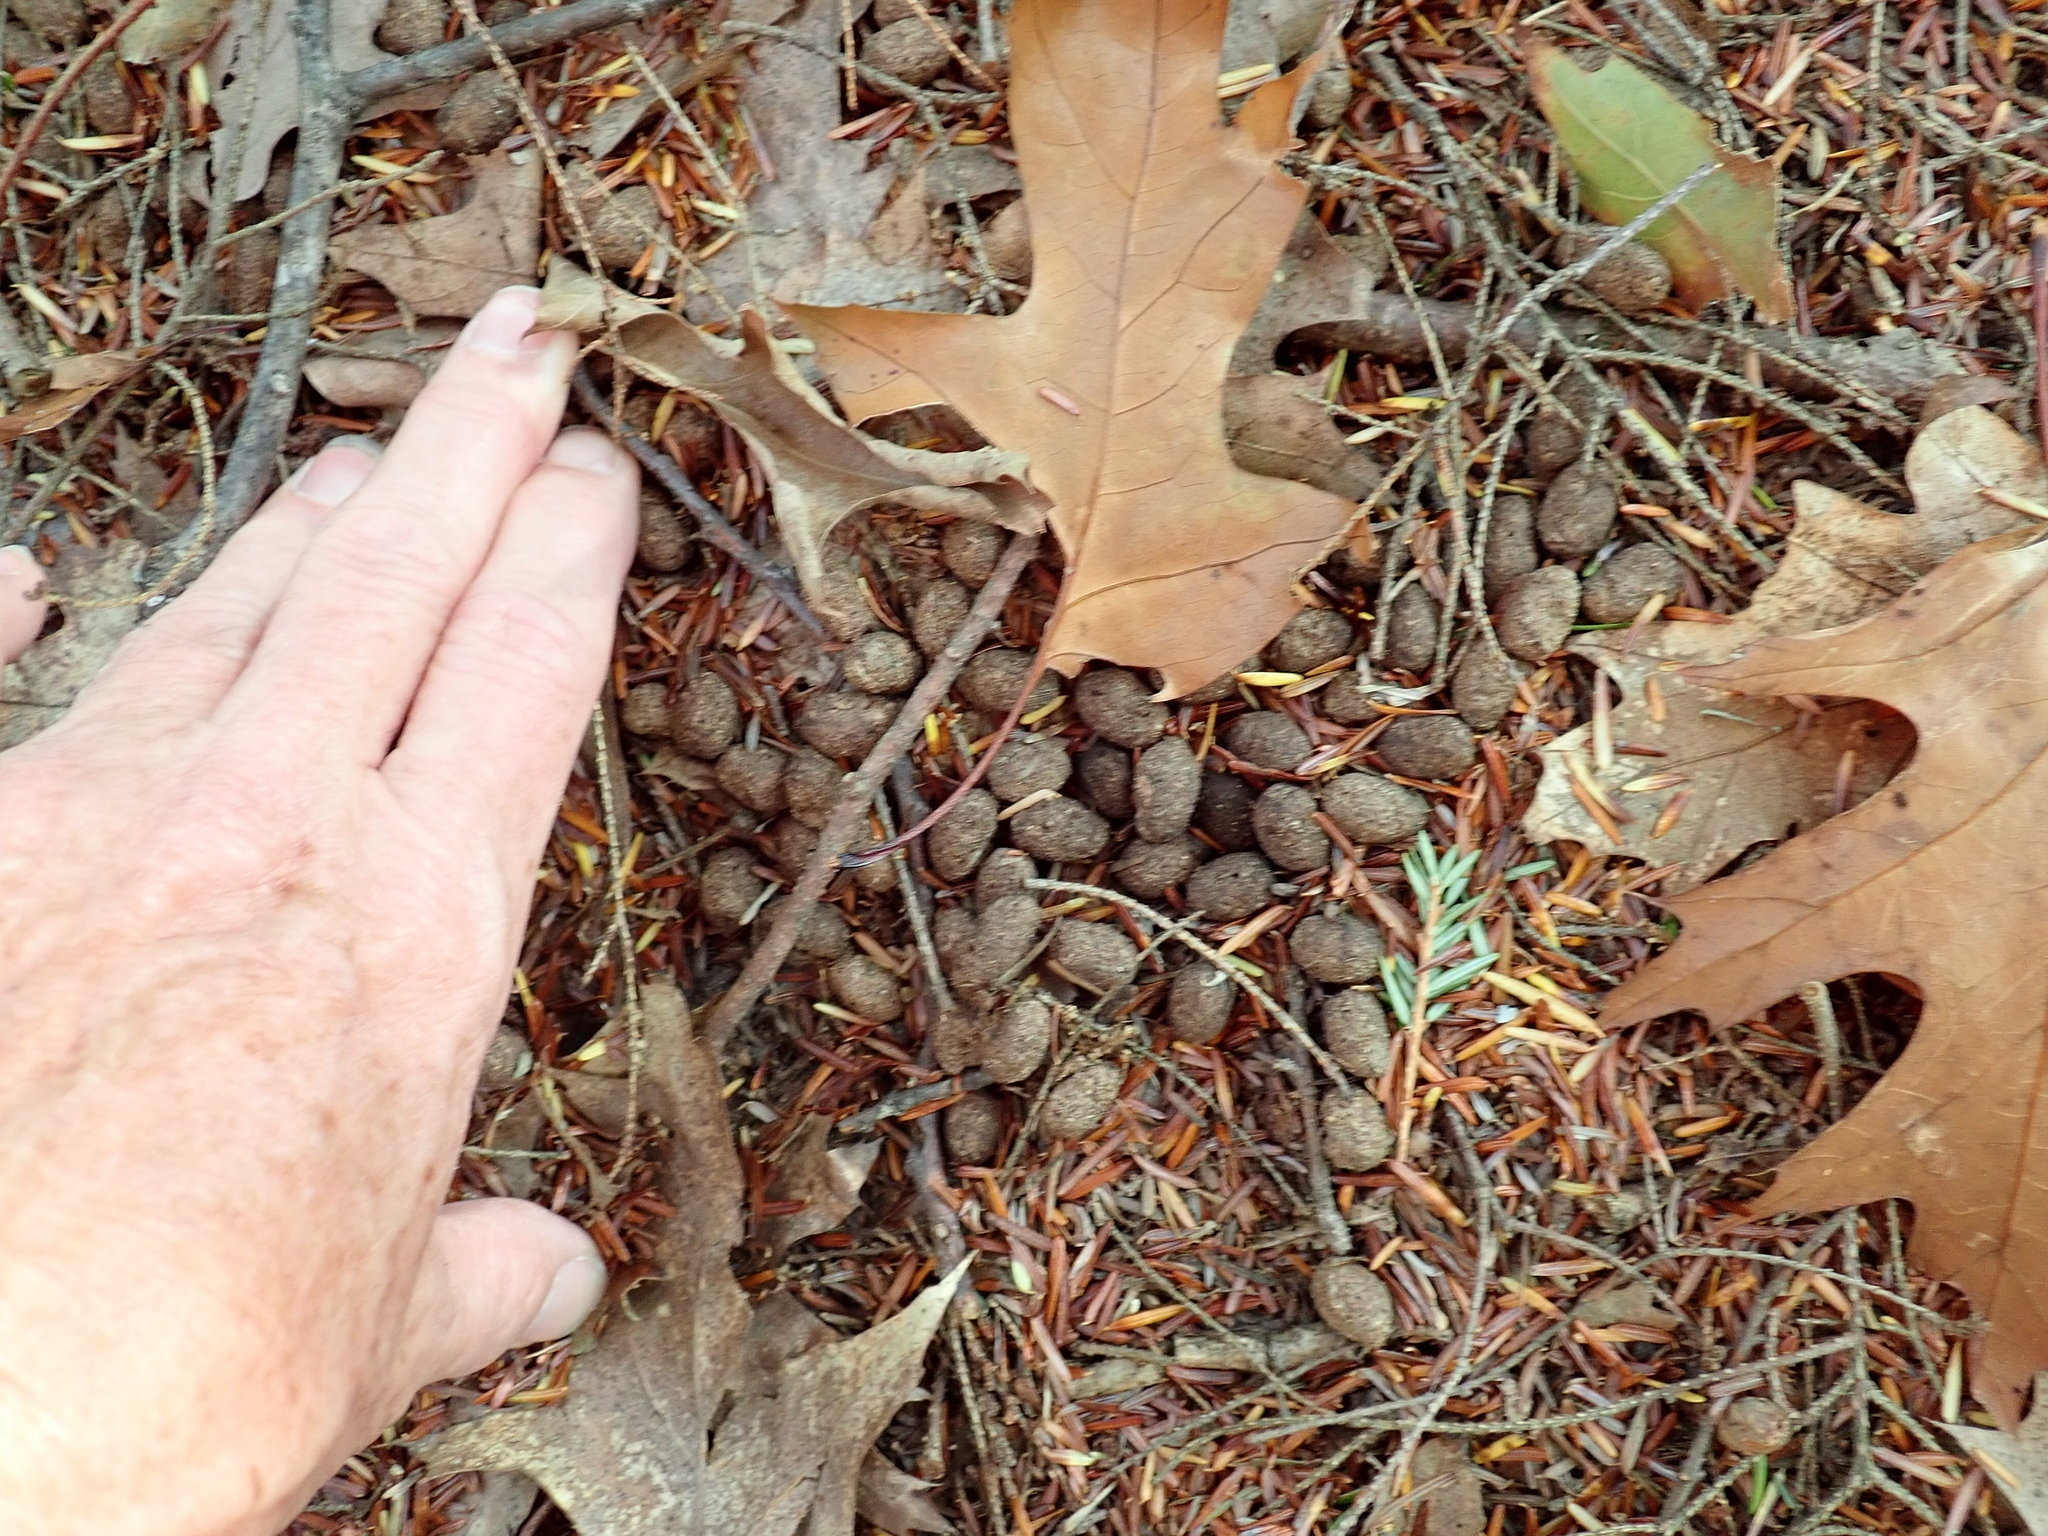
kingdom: Animalia
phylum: Chordata
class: Mammalia
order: Artiodactyla
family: Cervidae
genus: Odocoileus
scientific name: Odocoileus virginianus
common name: White-tailed deer
